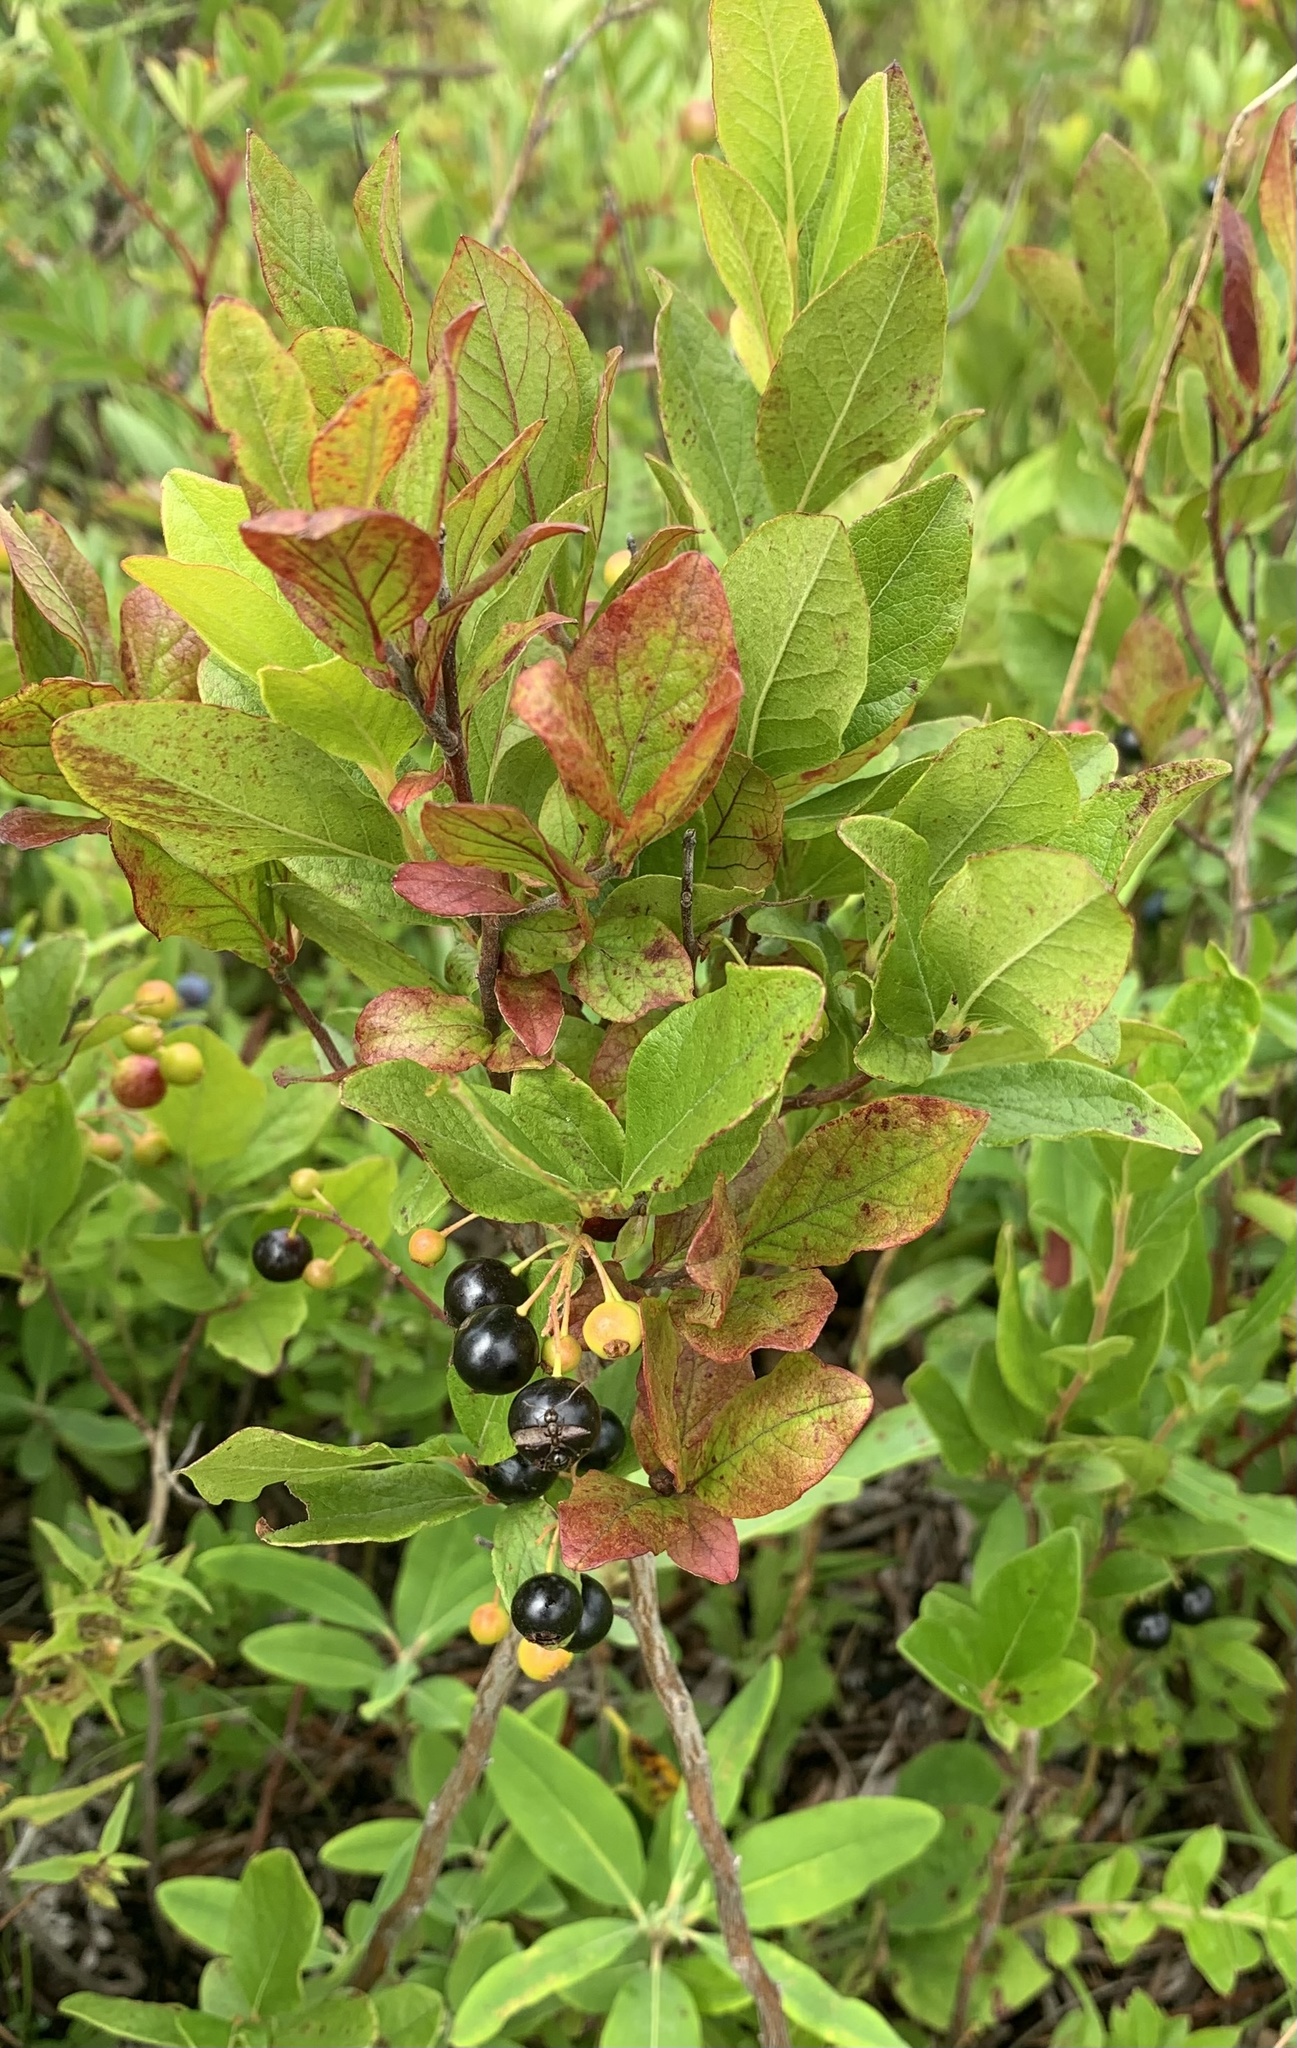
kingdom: Plantae
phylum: Tracheophyta
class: Magnoliopsida
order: Ericales
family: Ericaceae
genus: Gaylussacia
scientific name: Gaylussacia baccata
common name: Black huckleberry
